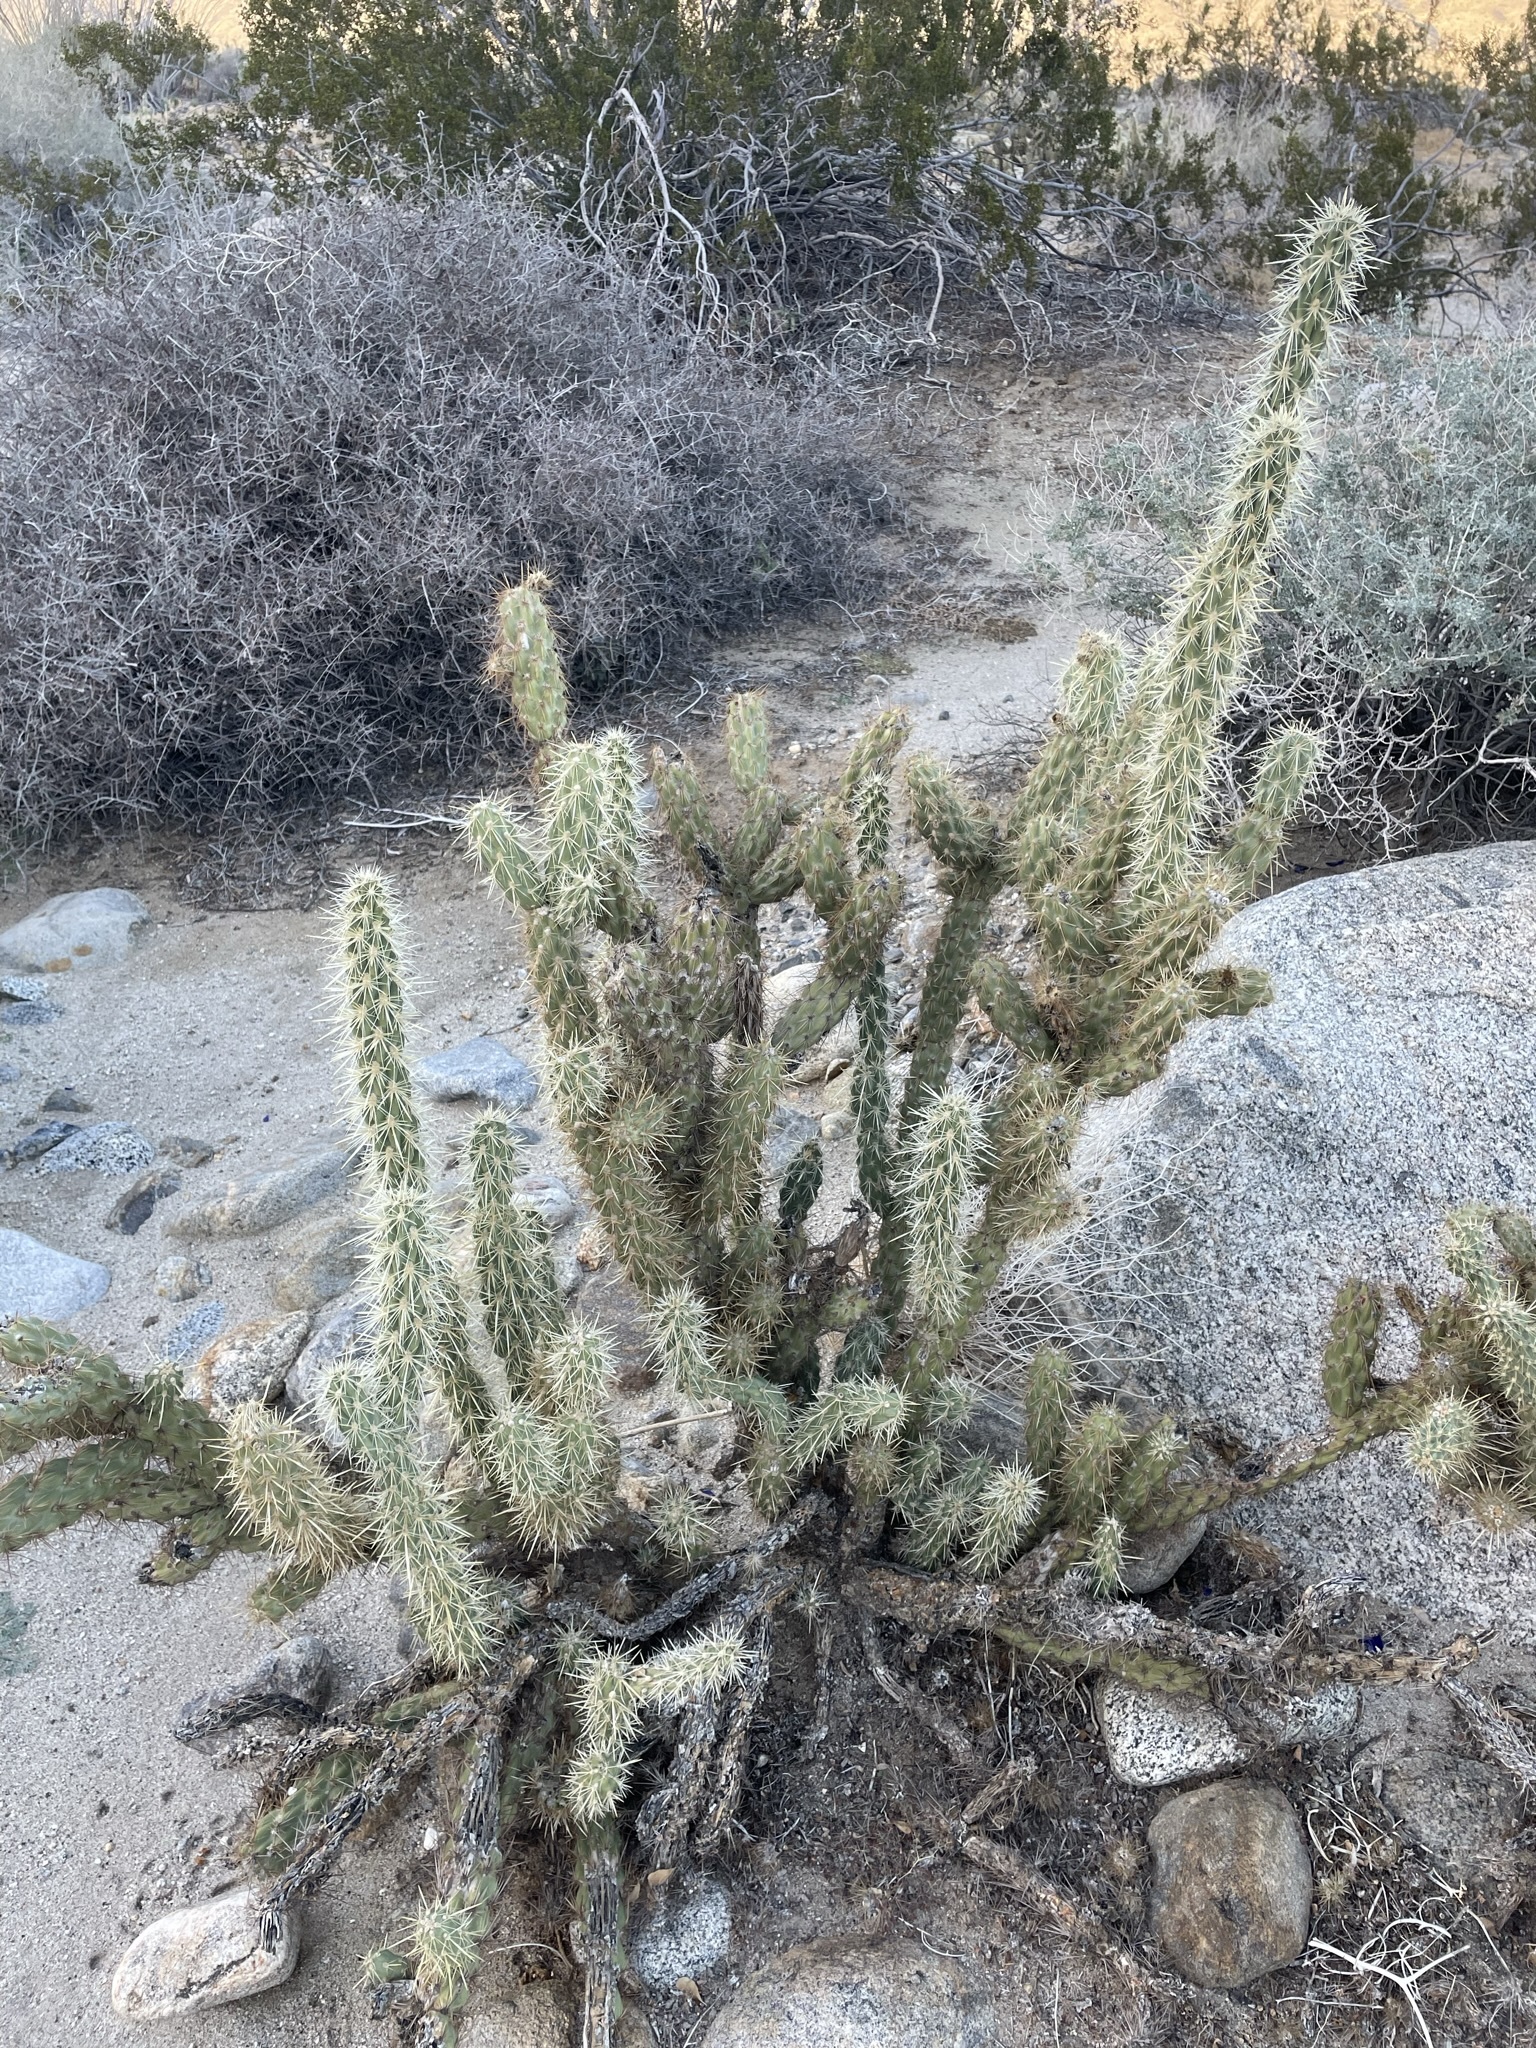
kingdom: Plantae
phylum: Tracheophyta
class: Magnoliopsida
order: Caryophyllales
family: Cactaceae
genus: Cylindropuntia
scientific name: Cylindropuntia ganderi
